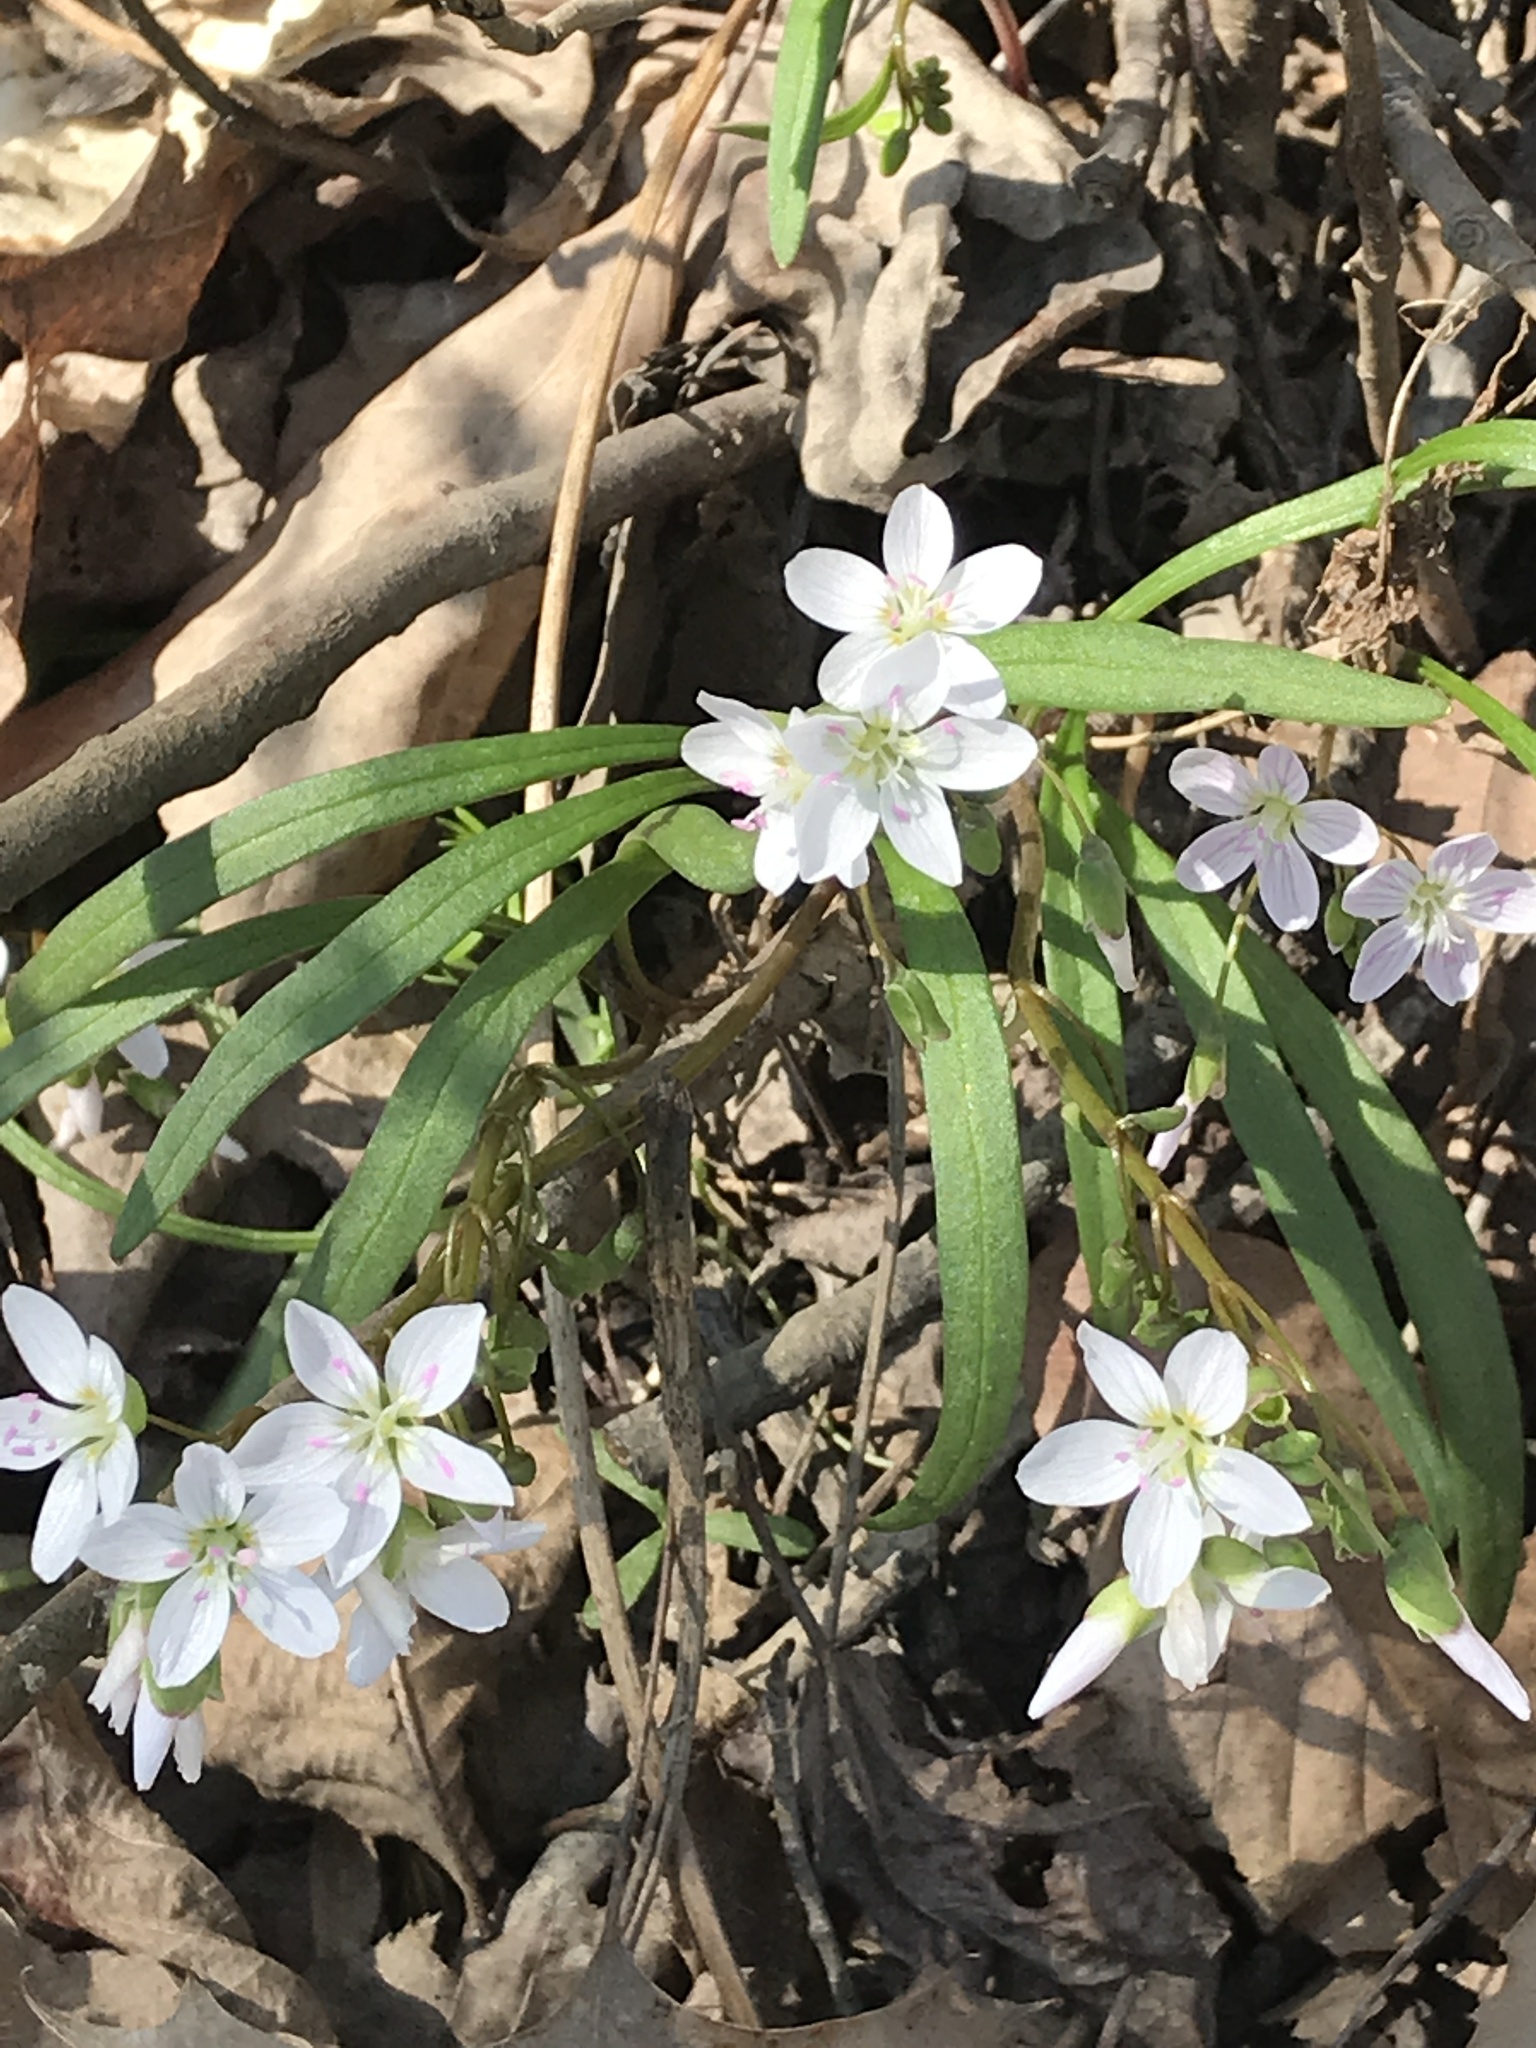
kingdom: Plantae
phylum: Tracheophyta
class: Magnoliopsida
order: Caryophyllales
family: Montiaceae
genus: Claytonia
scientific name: Claytonia virginica
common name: Virginia springbeauty
